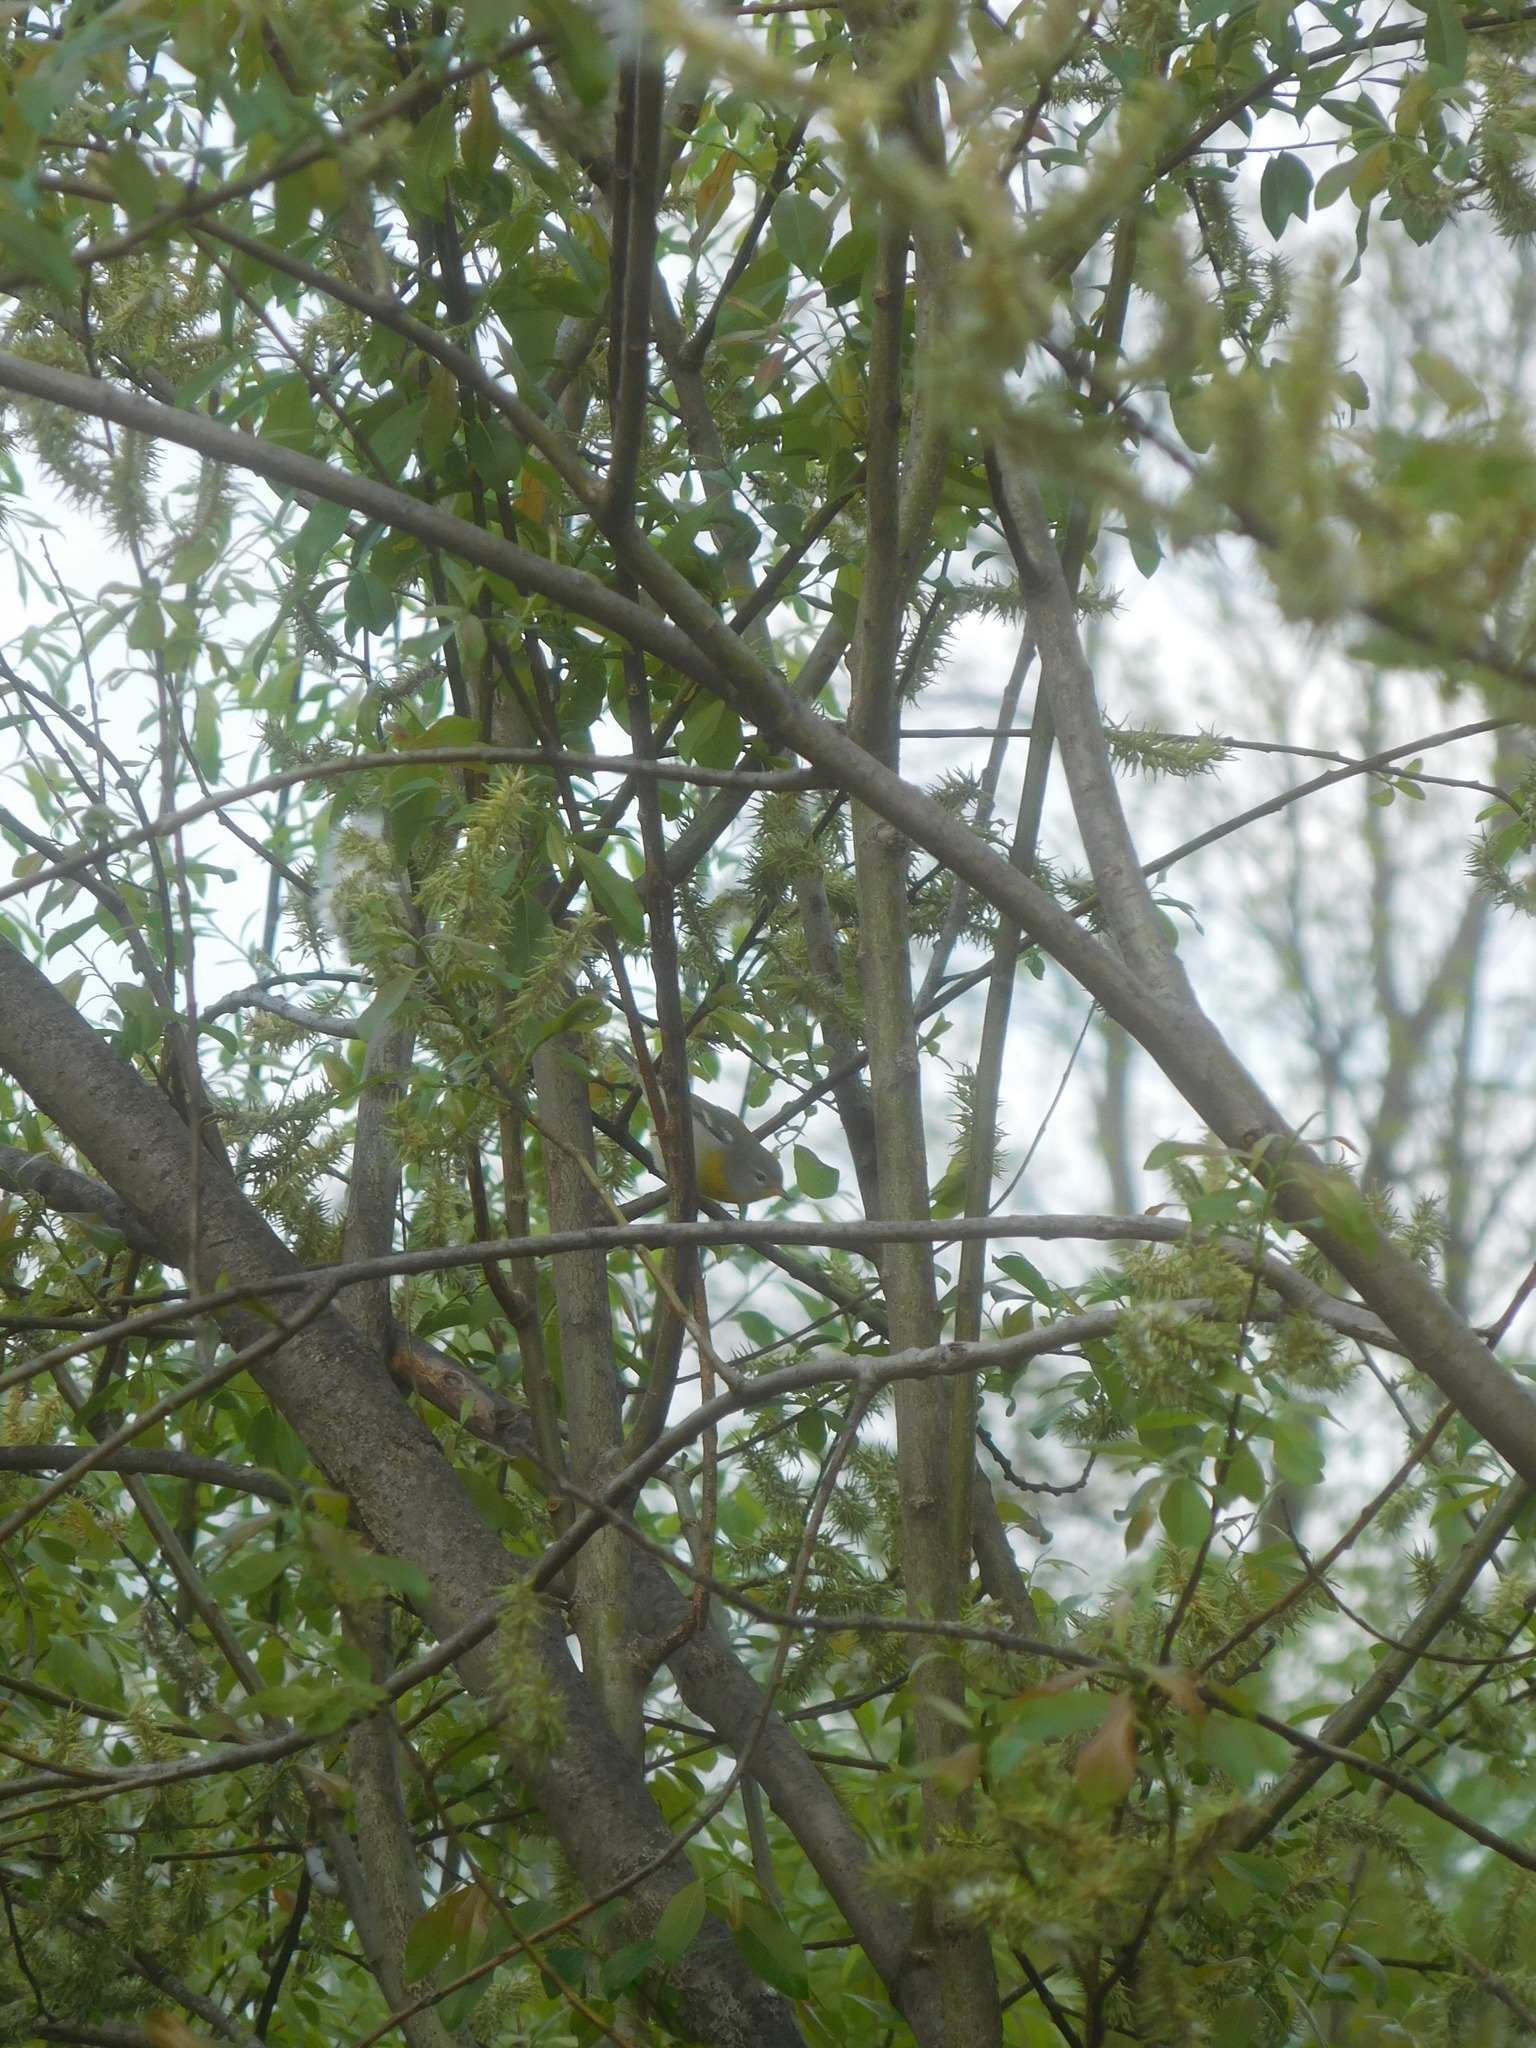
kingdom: Animalia
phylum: Chordata
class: Aves
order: Passeriformes
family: Parulidae
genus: Setophaga
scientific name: Setophaga americana
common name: Northern parula
